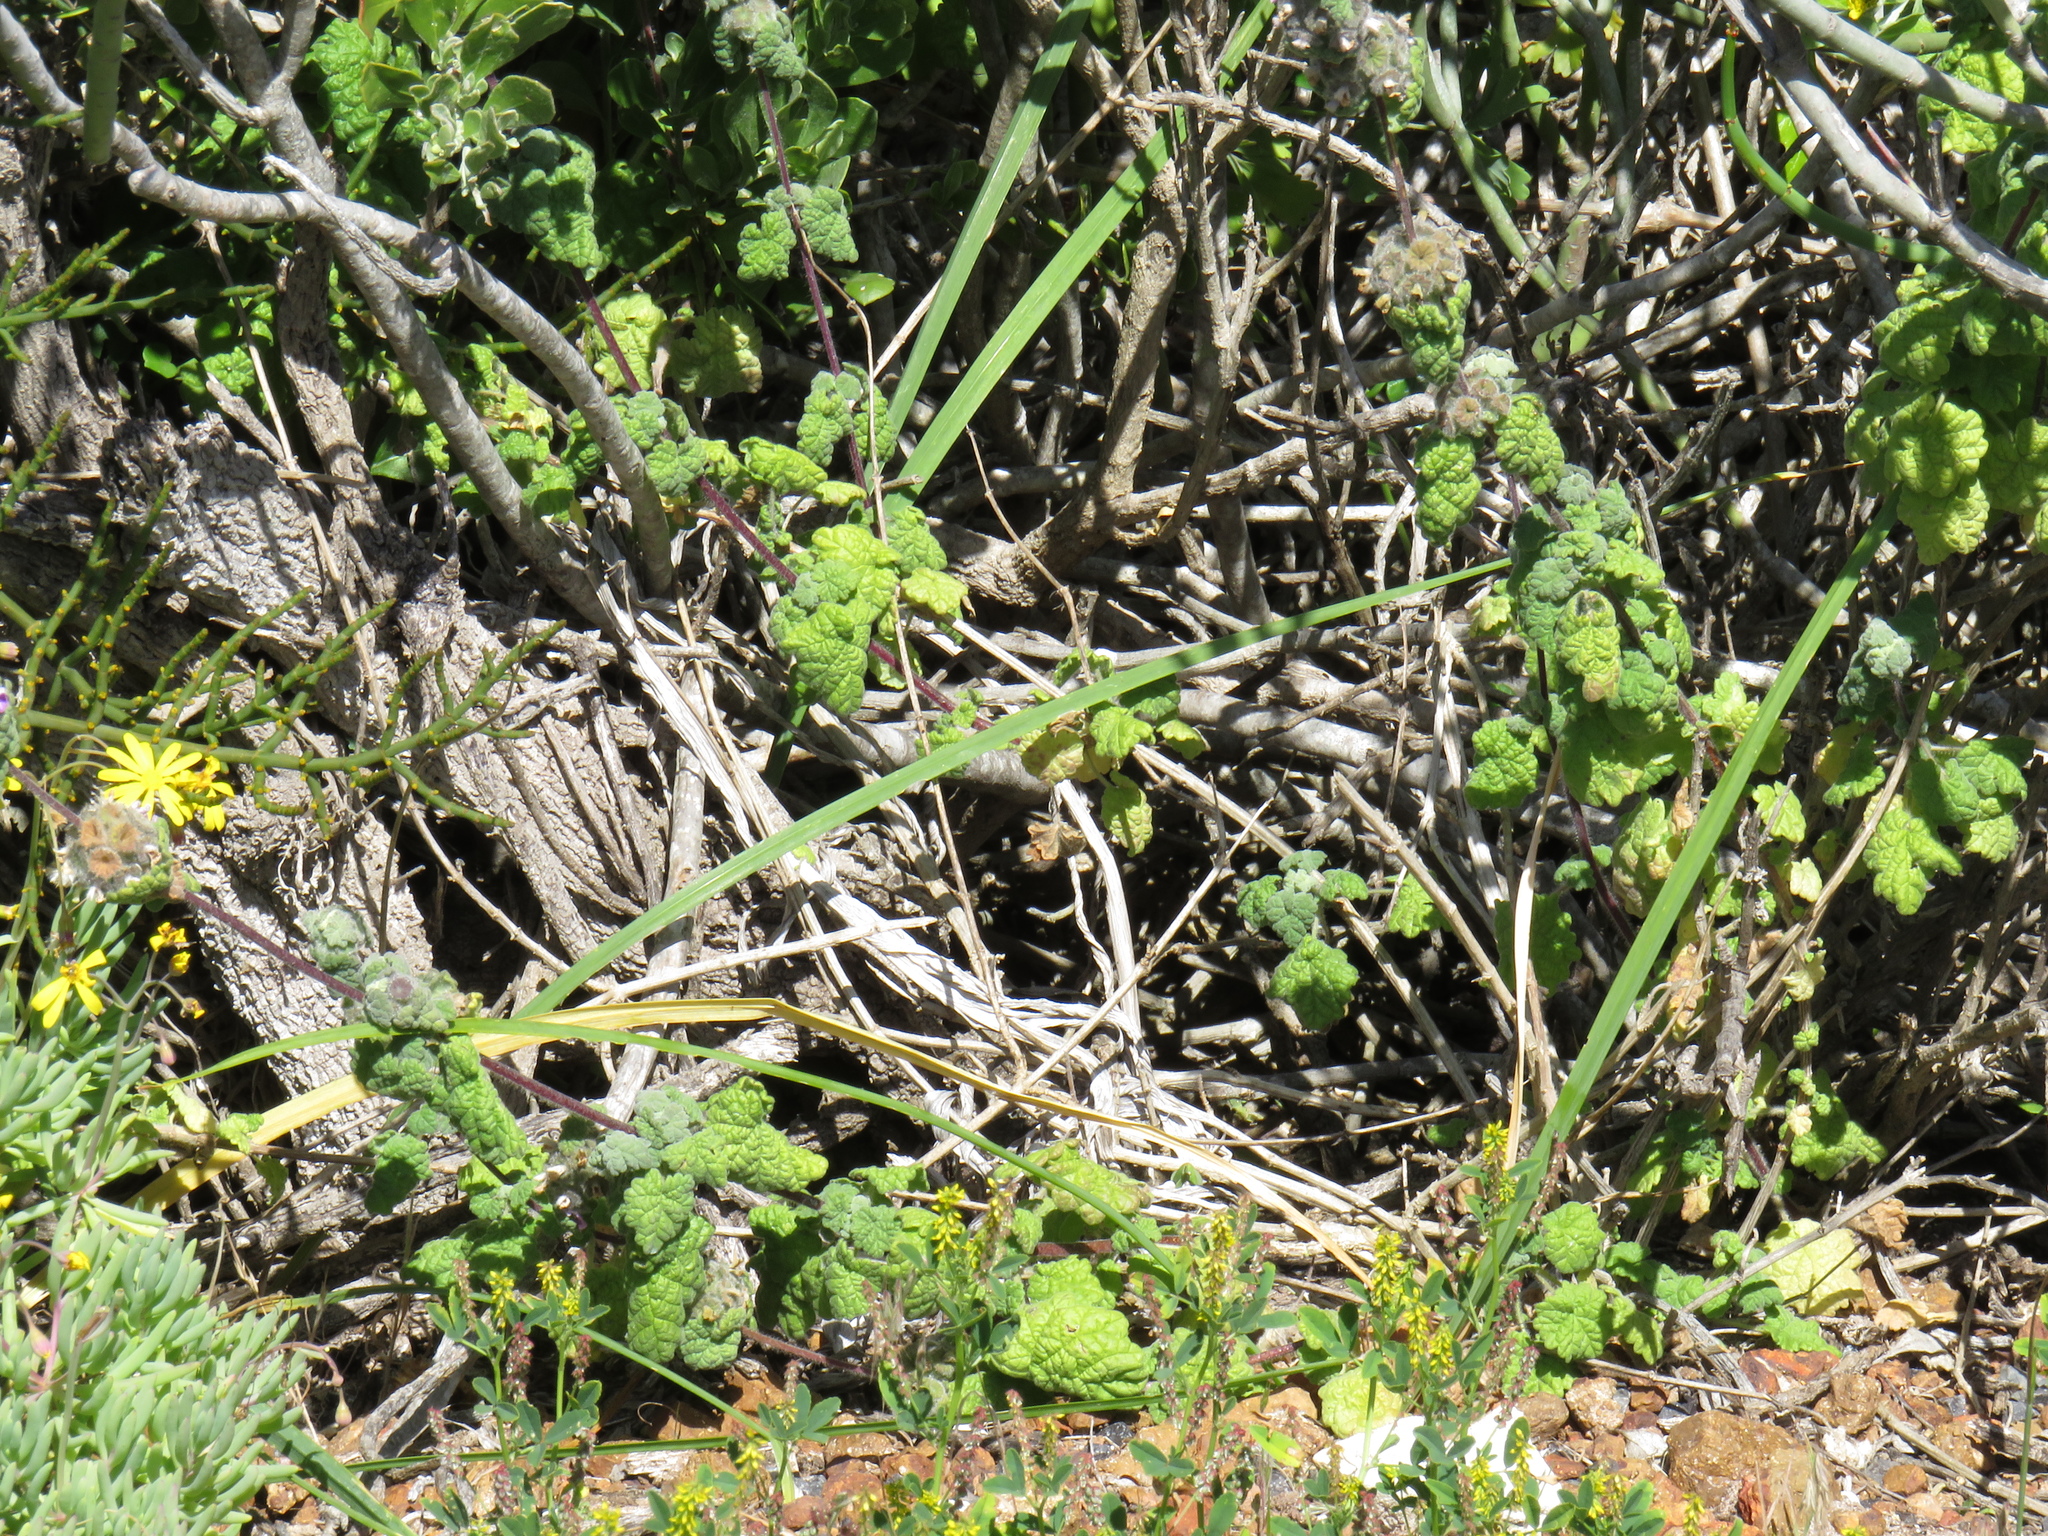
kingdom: Plantae
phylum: Tracheophyta
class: Magnoliopsida
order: Lamiales
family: Lamiaceae
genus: Pseudodictamnus
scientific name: Pseudodictamnus africanus
